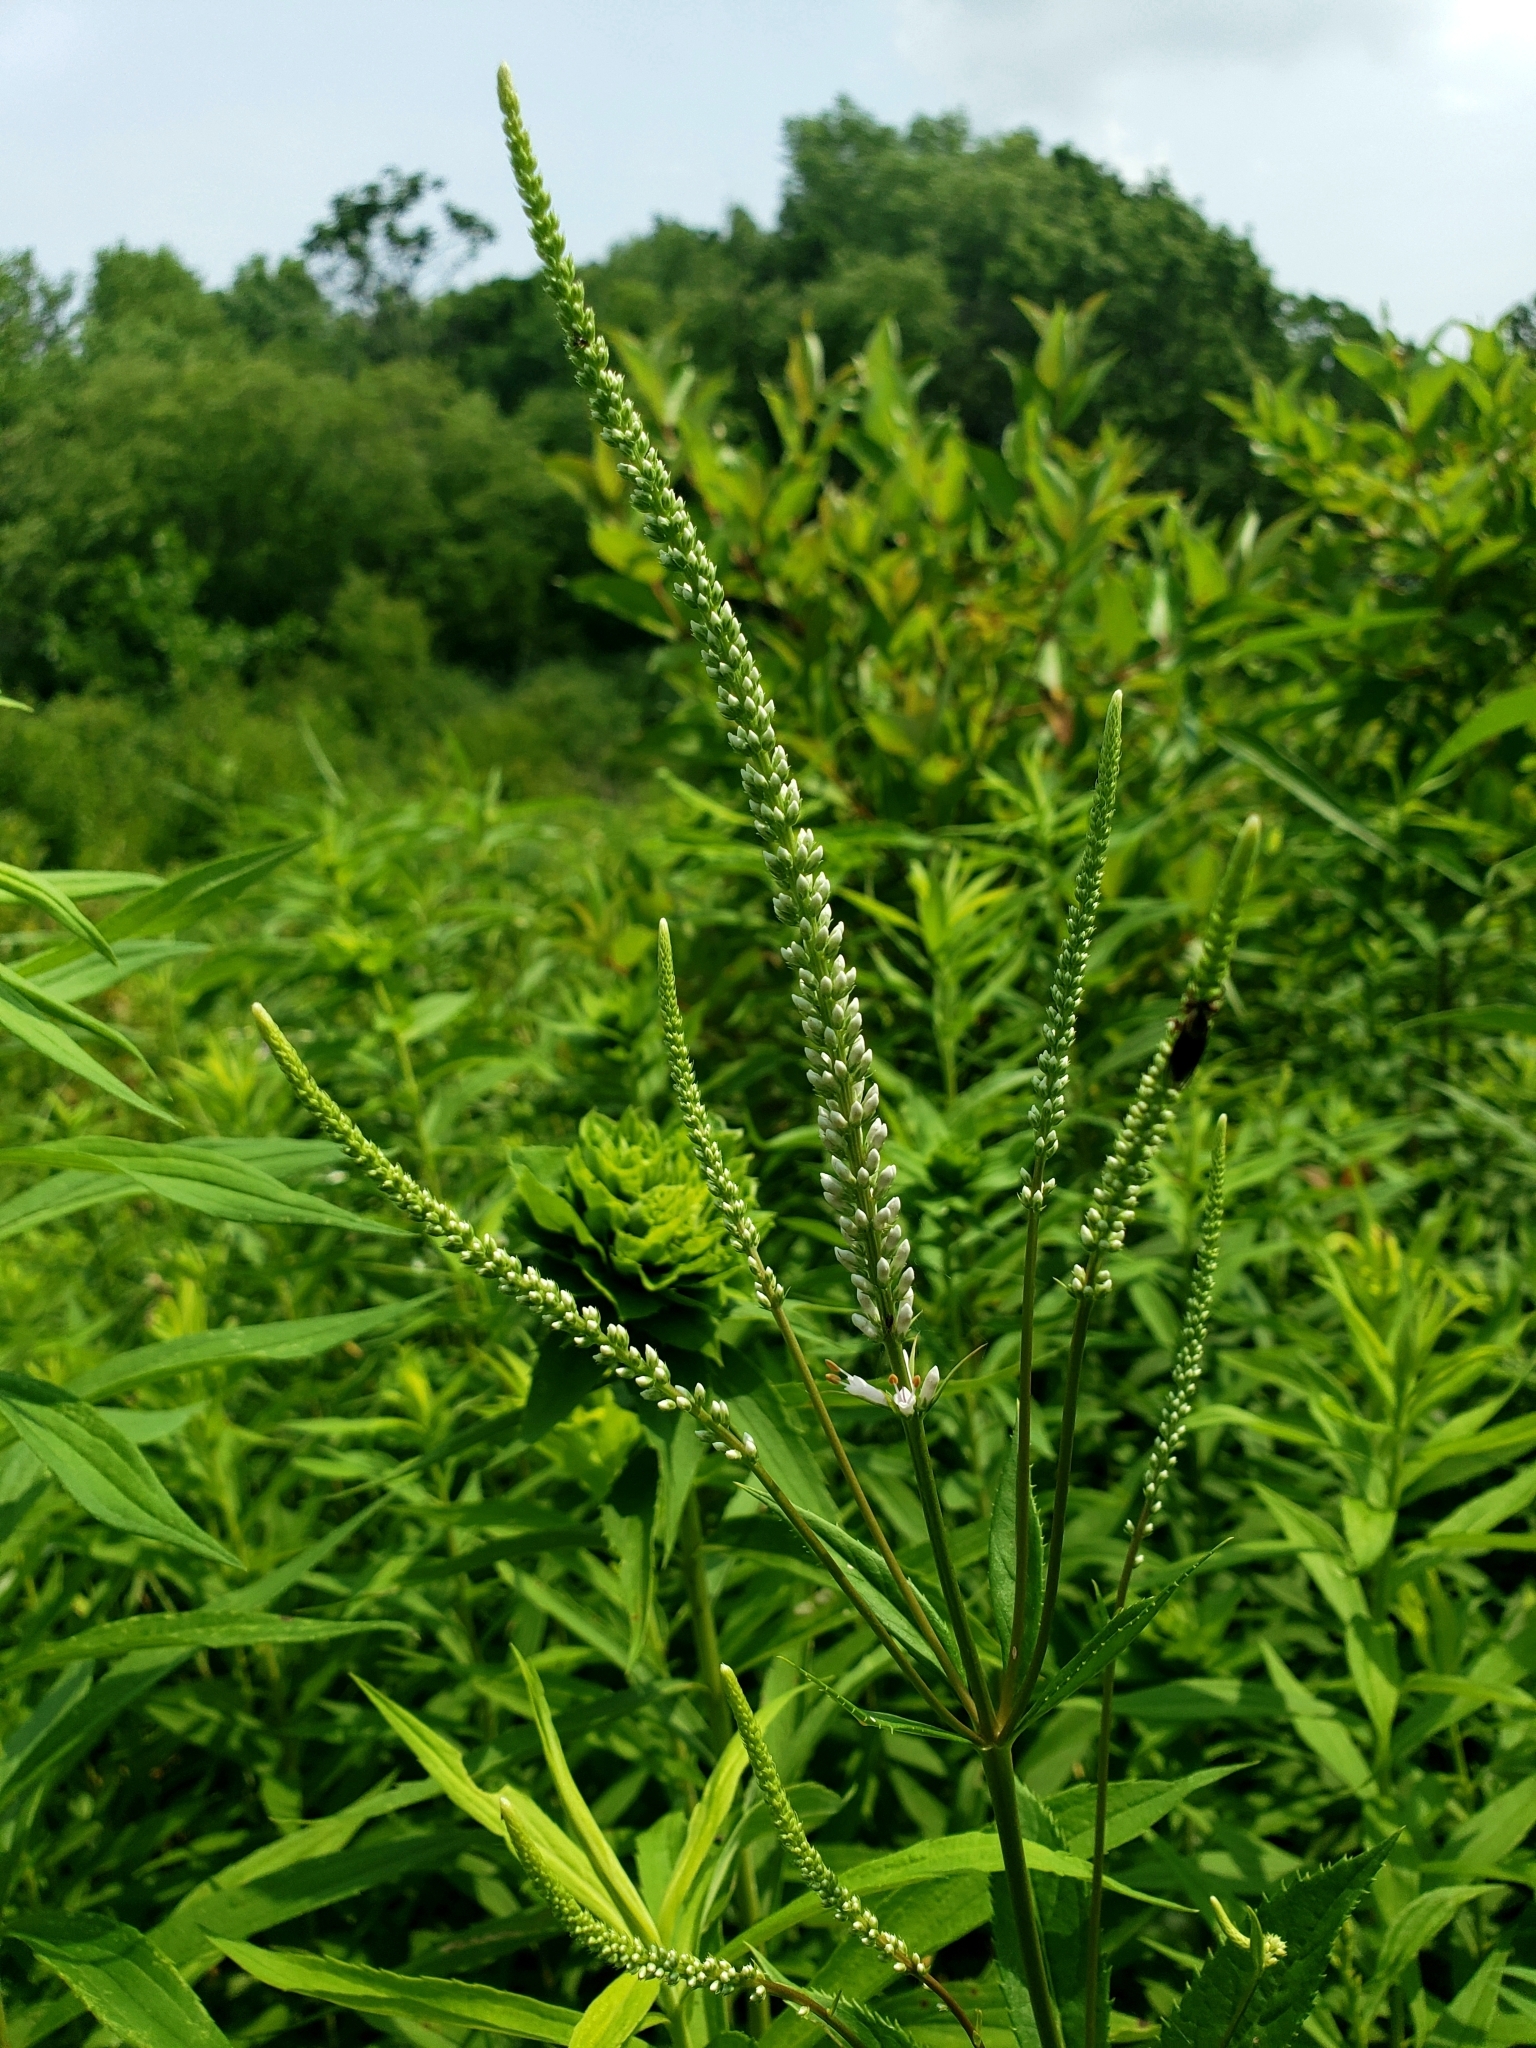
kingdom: Plantae
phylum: Tracheophyta
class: Magnoliopsida
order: Lamiales
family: Plantaginaceae
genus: Veronicastrum
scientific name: Veronicastrum virginicum
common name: Blackroot
